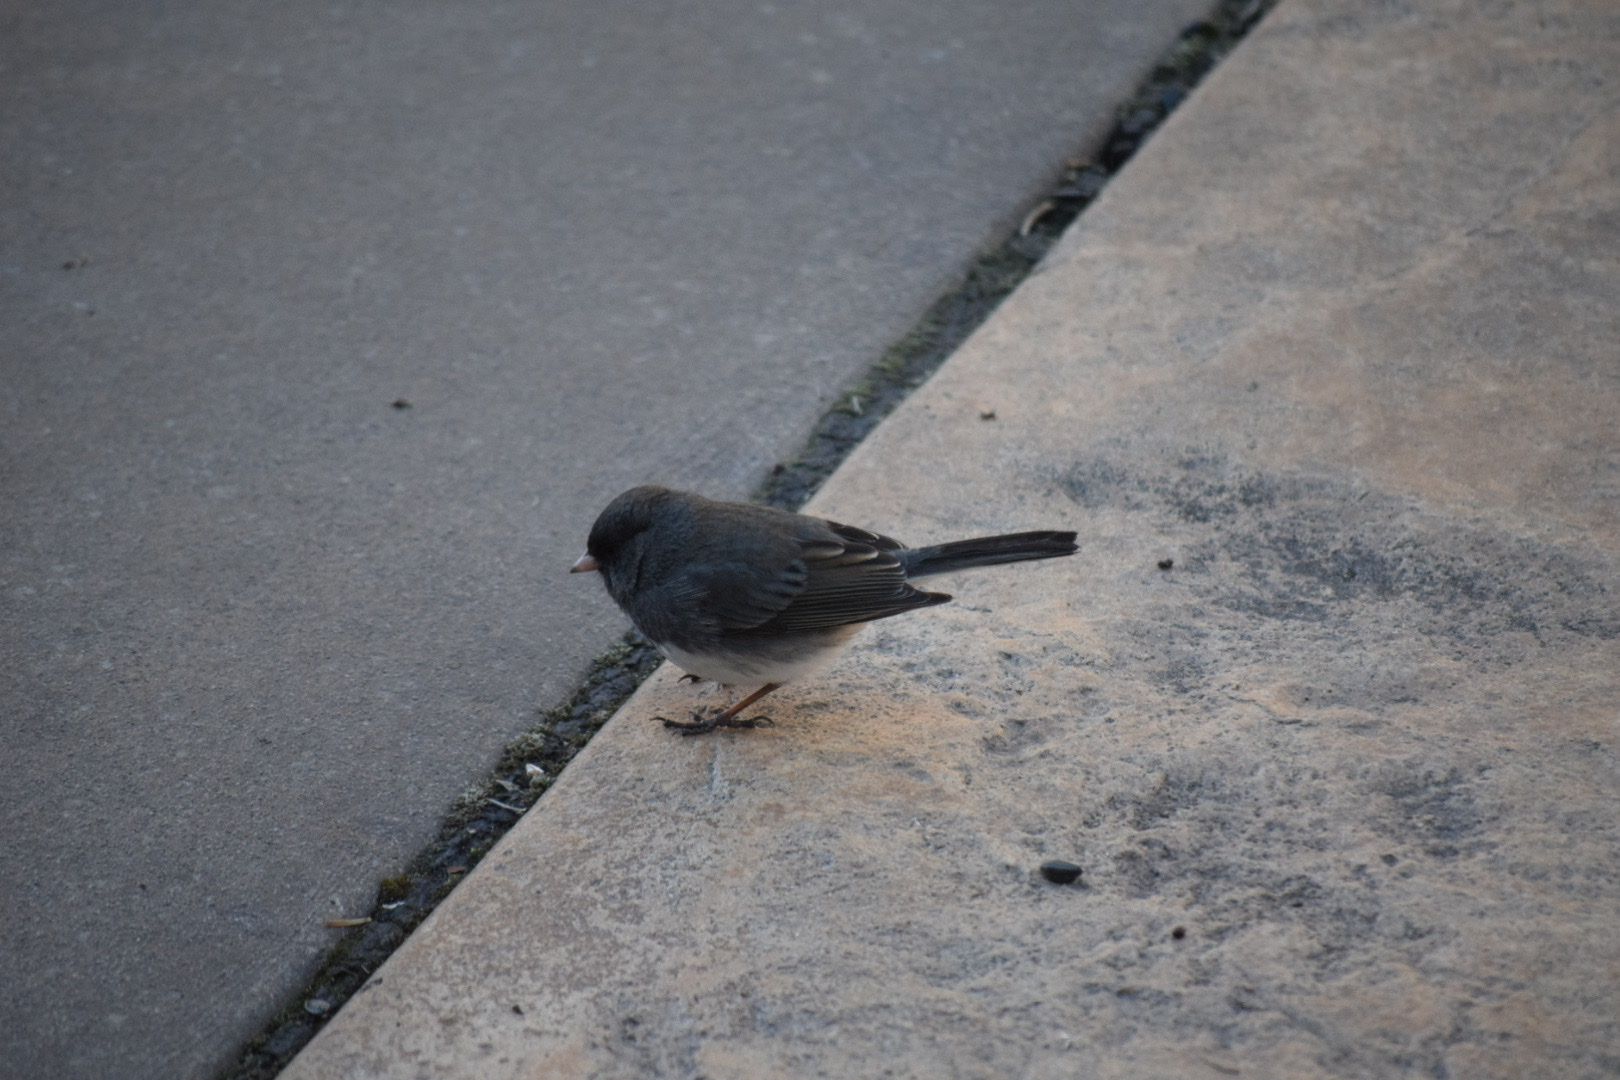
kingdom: Animalia
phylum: Chordata
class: Aves
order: Passeriformes
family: Passerellidae
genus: Junco
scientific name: Junco hyemalis
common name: Dark-eyed junco
